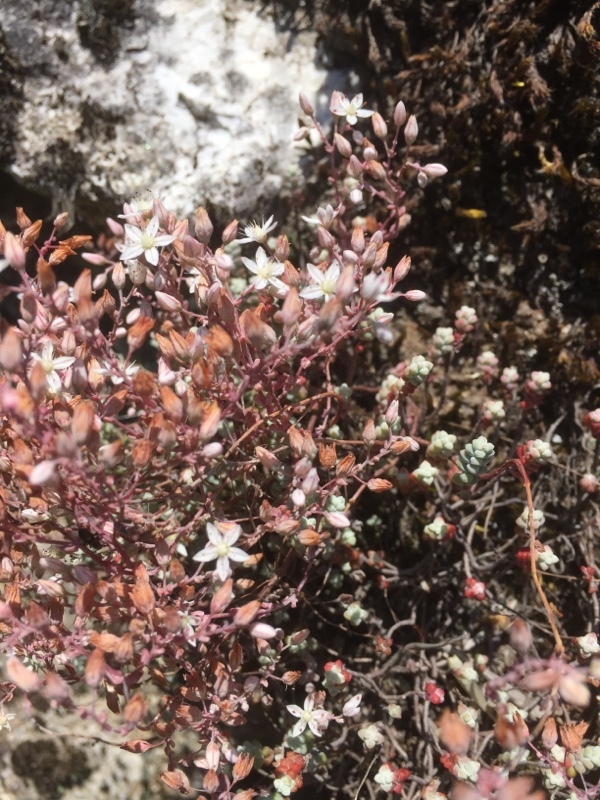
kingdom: Plantae
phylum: Tracheophyta
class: Magnoliopsida
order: Saxifragales
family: Crassulaceae
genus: Sedum
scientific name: Sedum brevifolium
